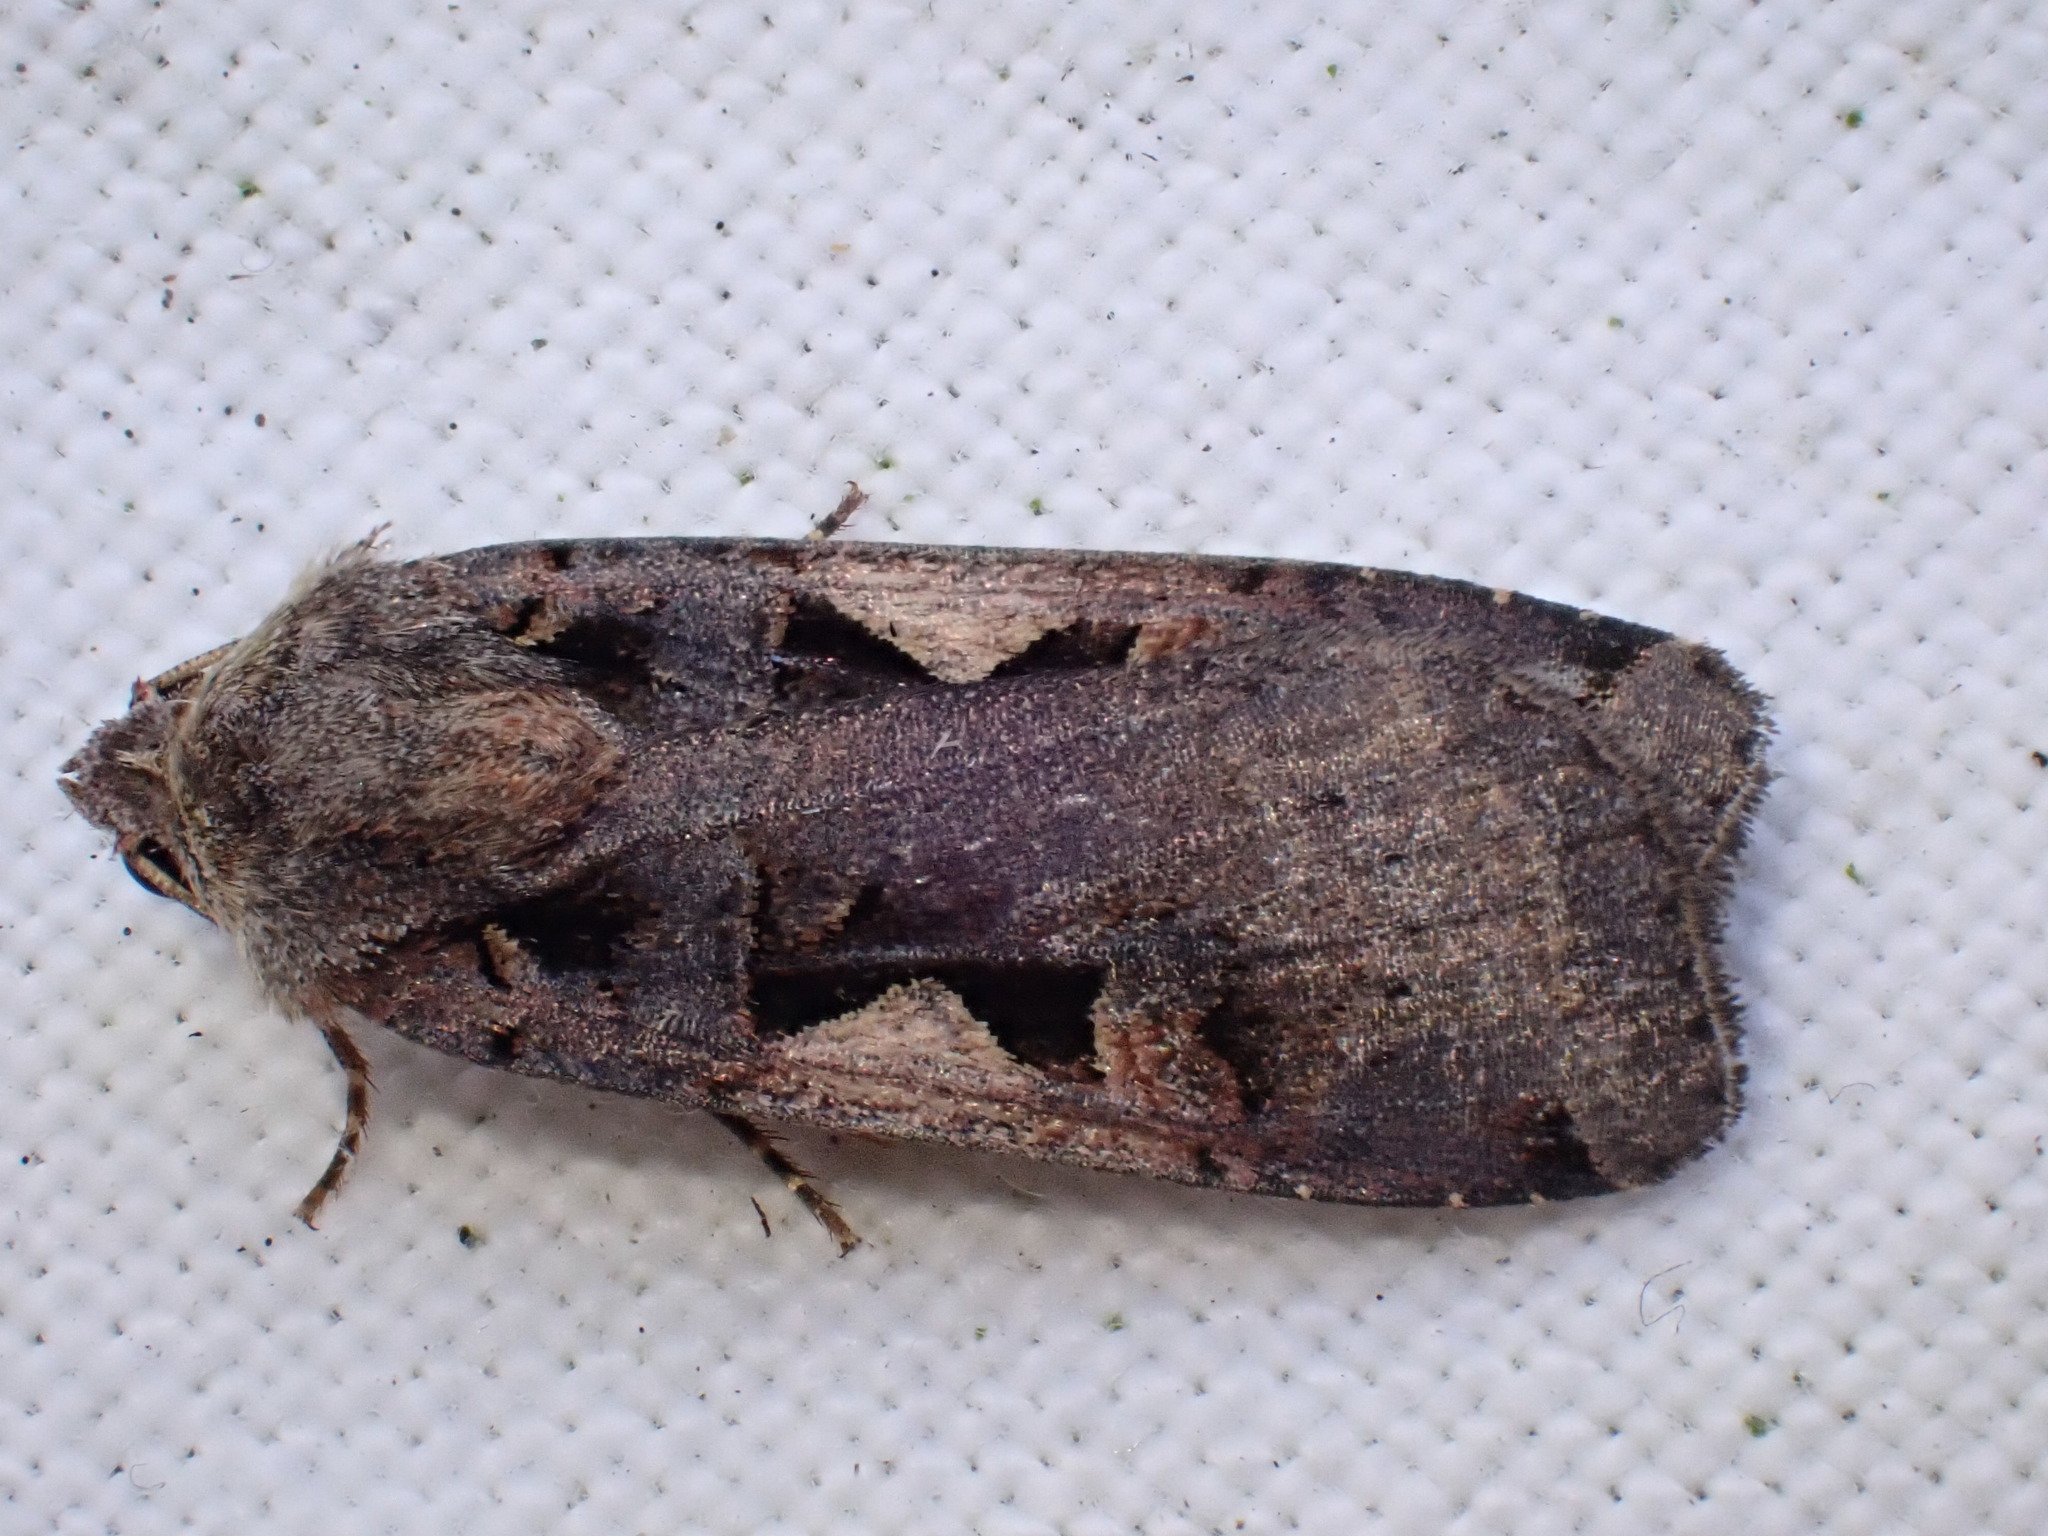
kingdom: Animalia
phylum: Arthropoda
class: Insecta
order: Lepidoptera
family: Noctuidae
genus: Xestia
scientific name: Xestia c-nigrum
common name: Setaceous hebrew character
